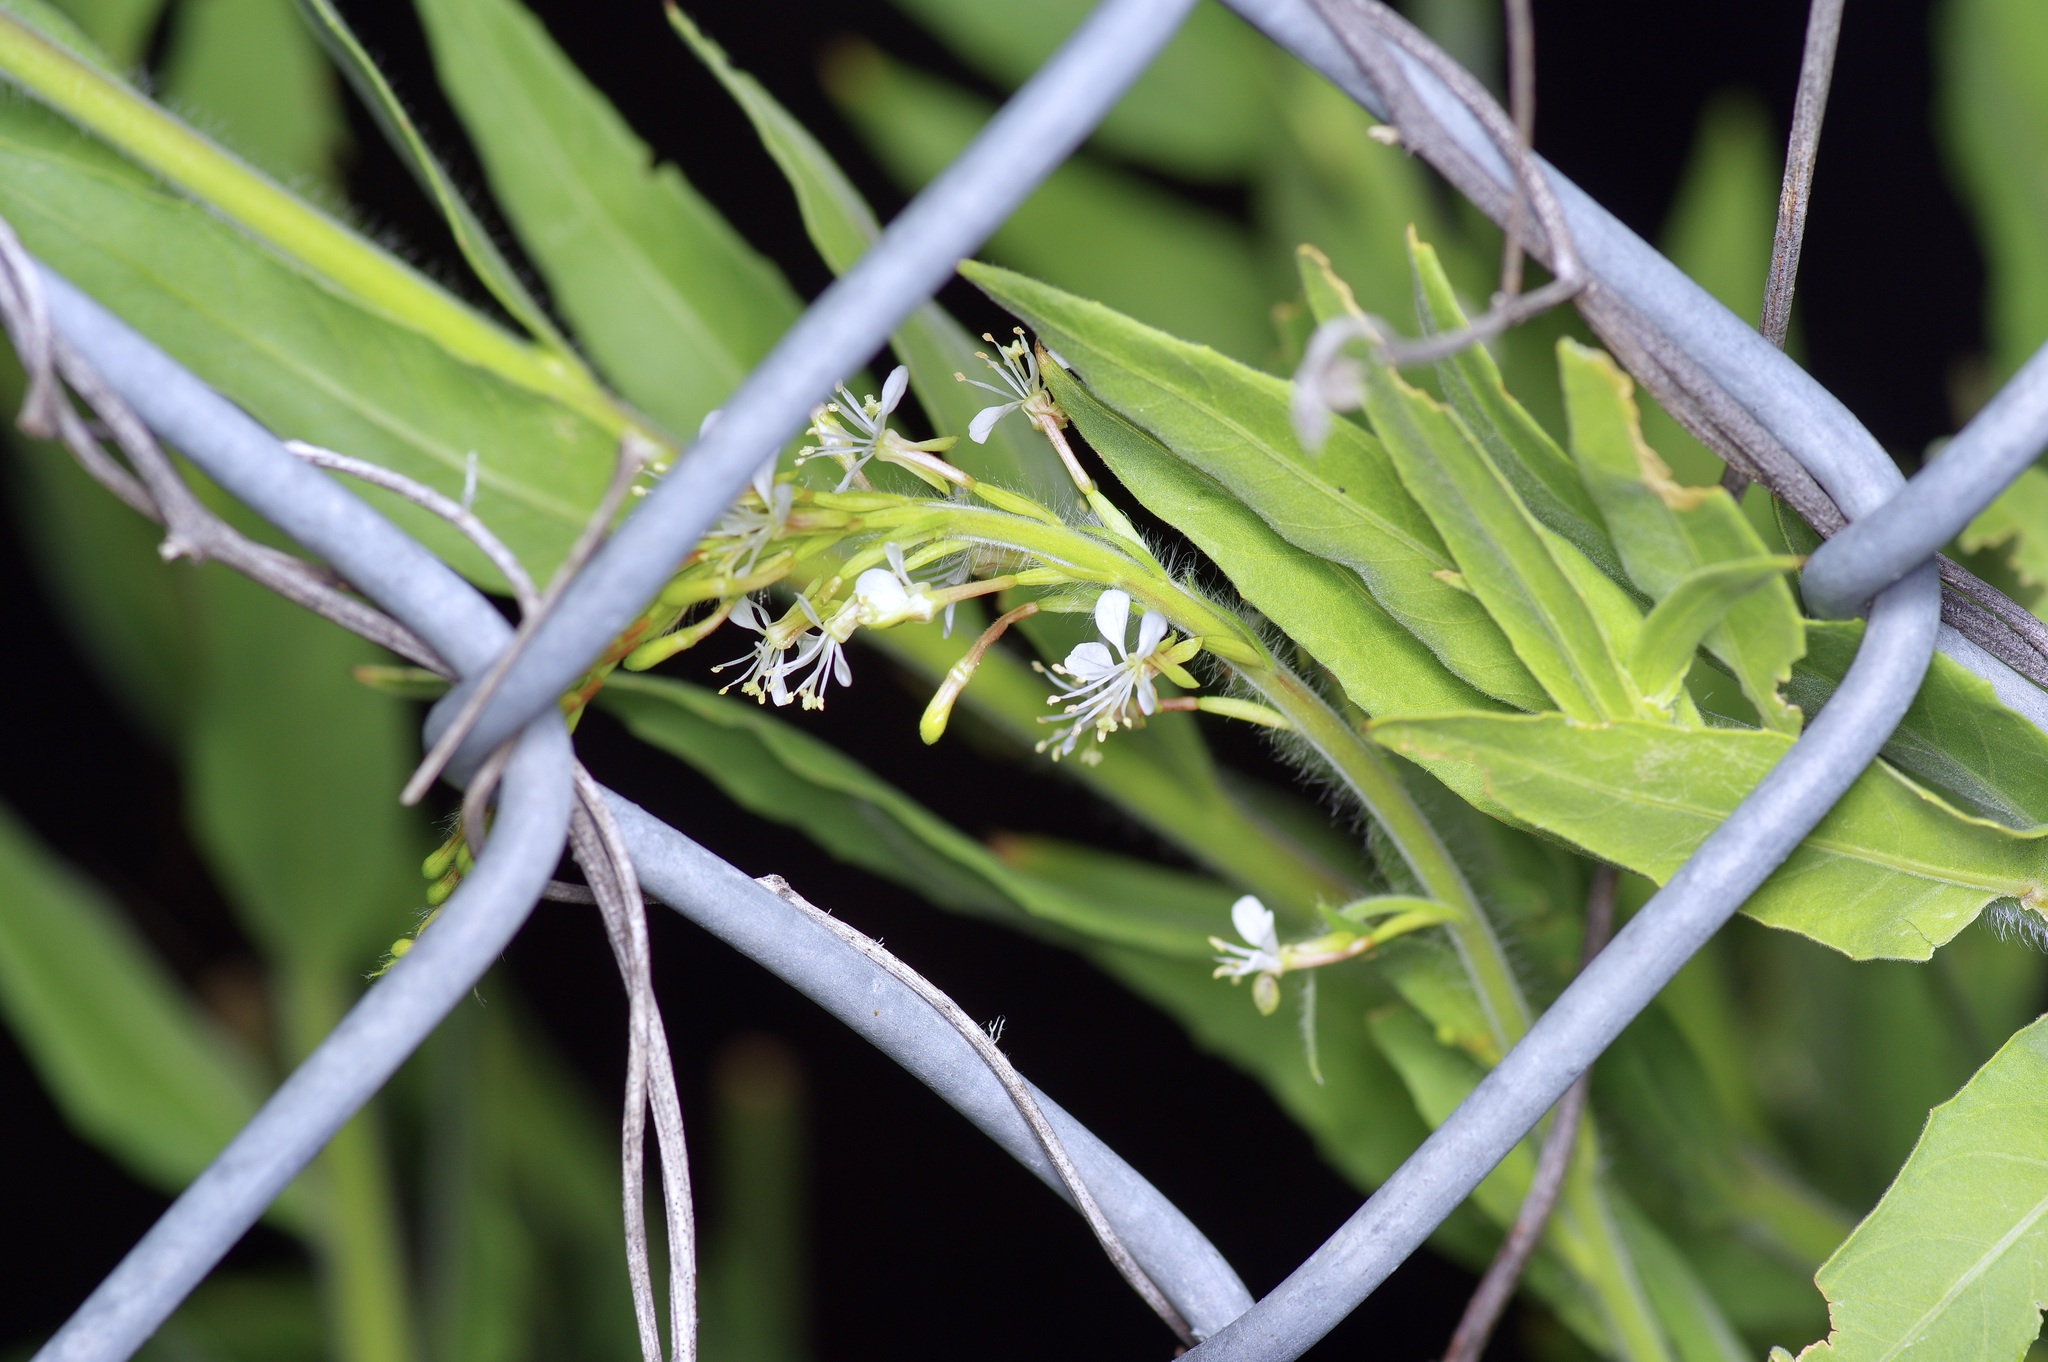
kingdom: Plantae
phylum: Tracheophyta
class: Magnoliopsida
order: Myrtales
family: Onagraceae
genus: Oenothera
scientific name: Oenothera curtiflora
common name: Velvetweed
